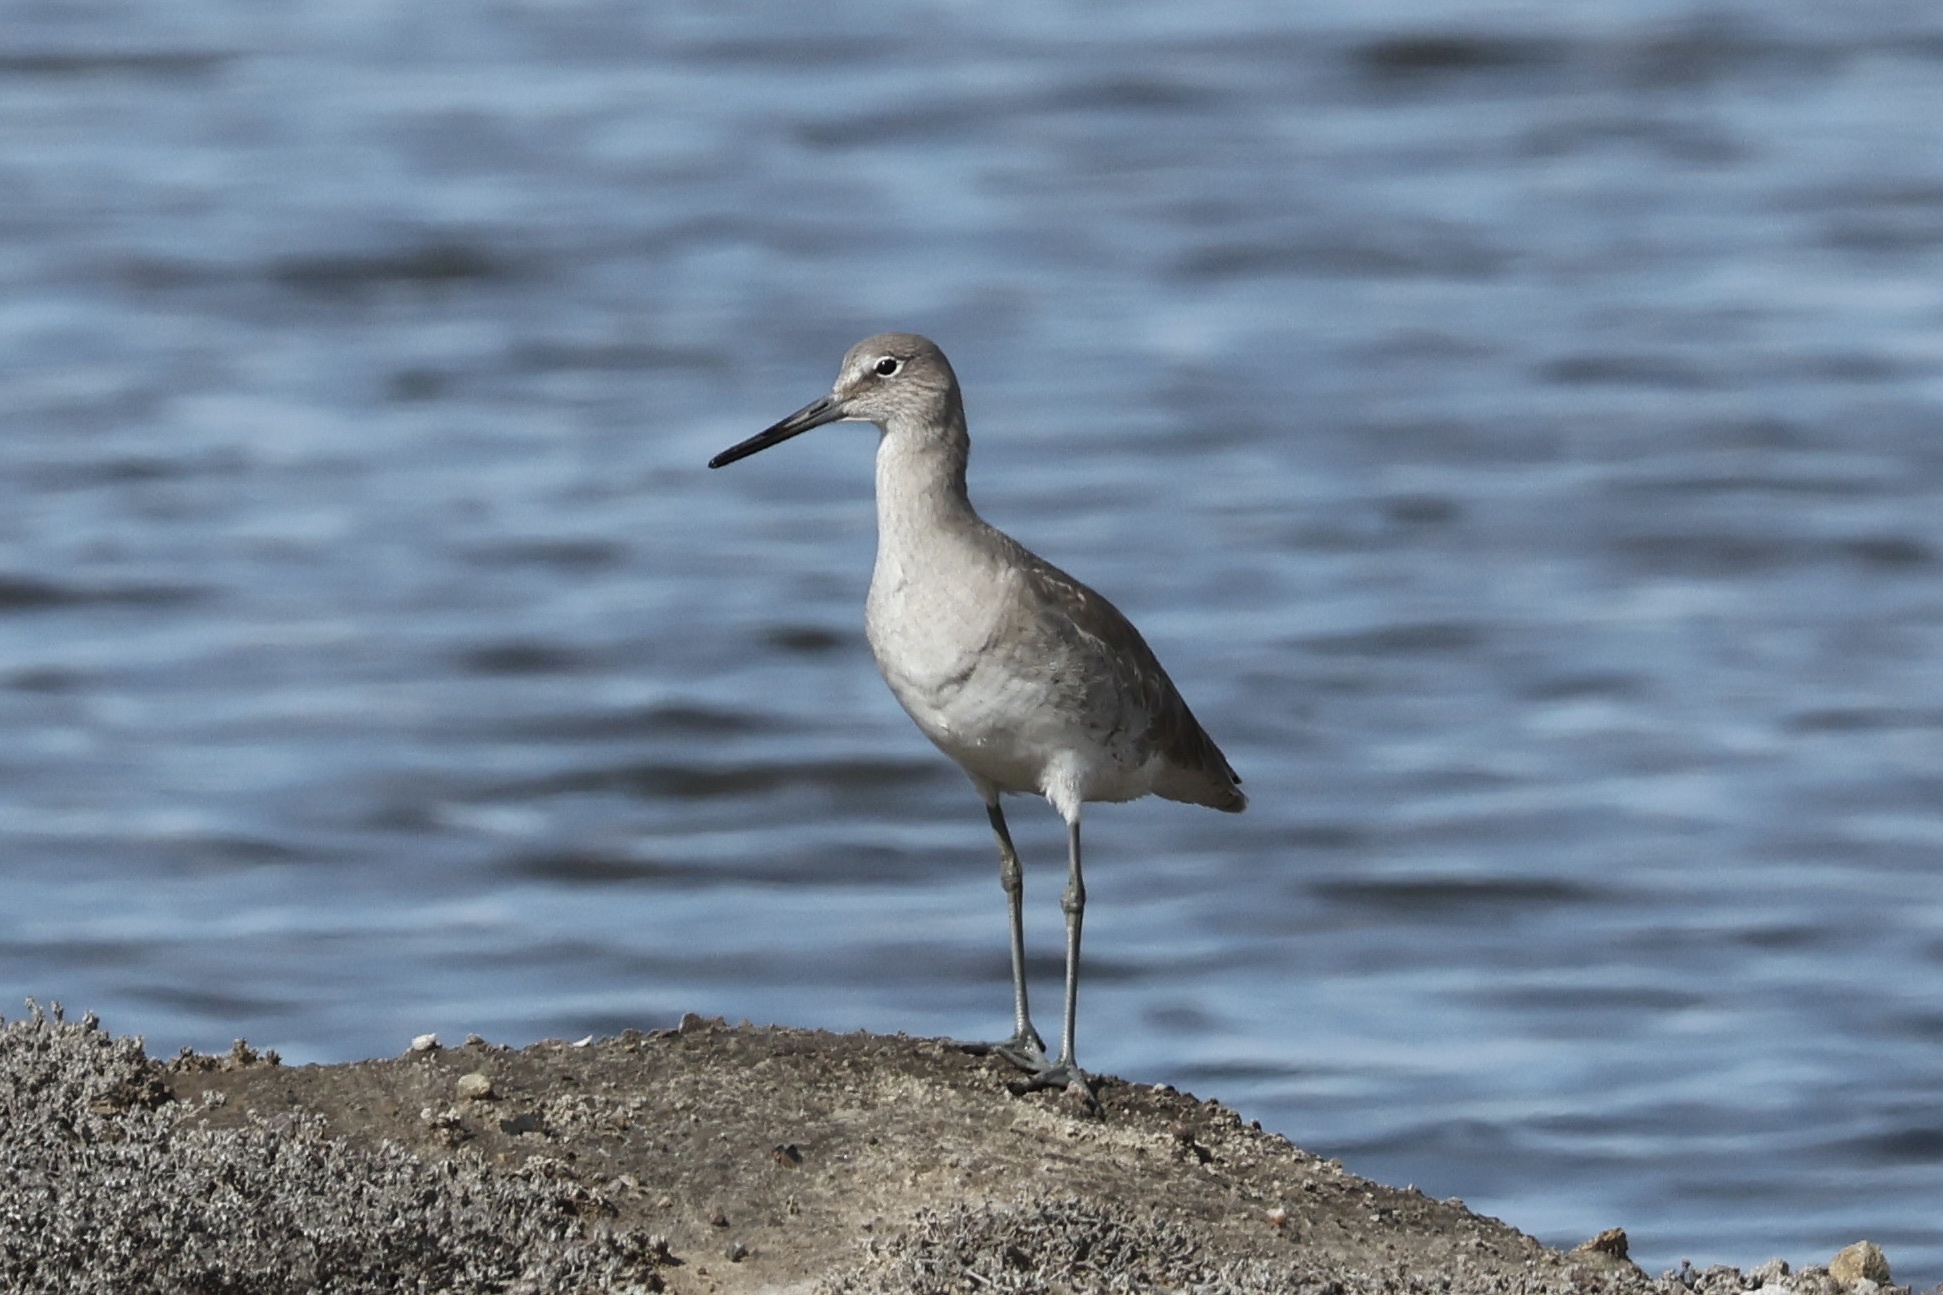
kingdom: Animalia
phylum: Chordata
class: Aves
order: Charadriiformes
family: Scolopacidae
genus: Tringa
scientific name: Tringa semipalmata
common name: Willet
